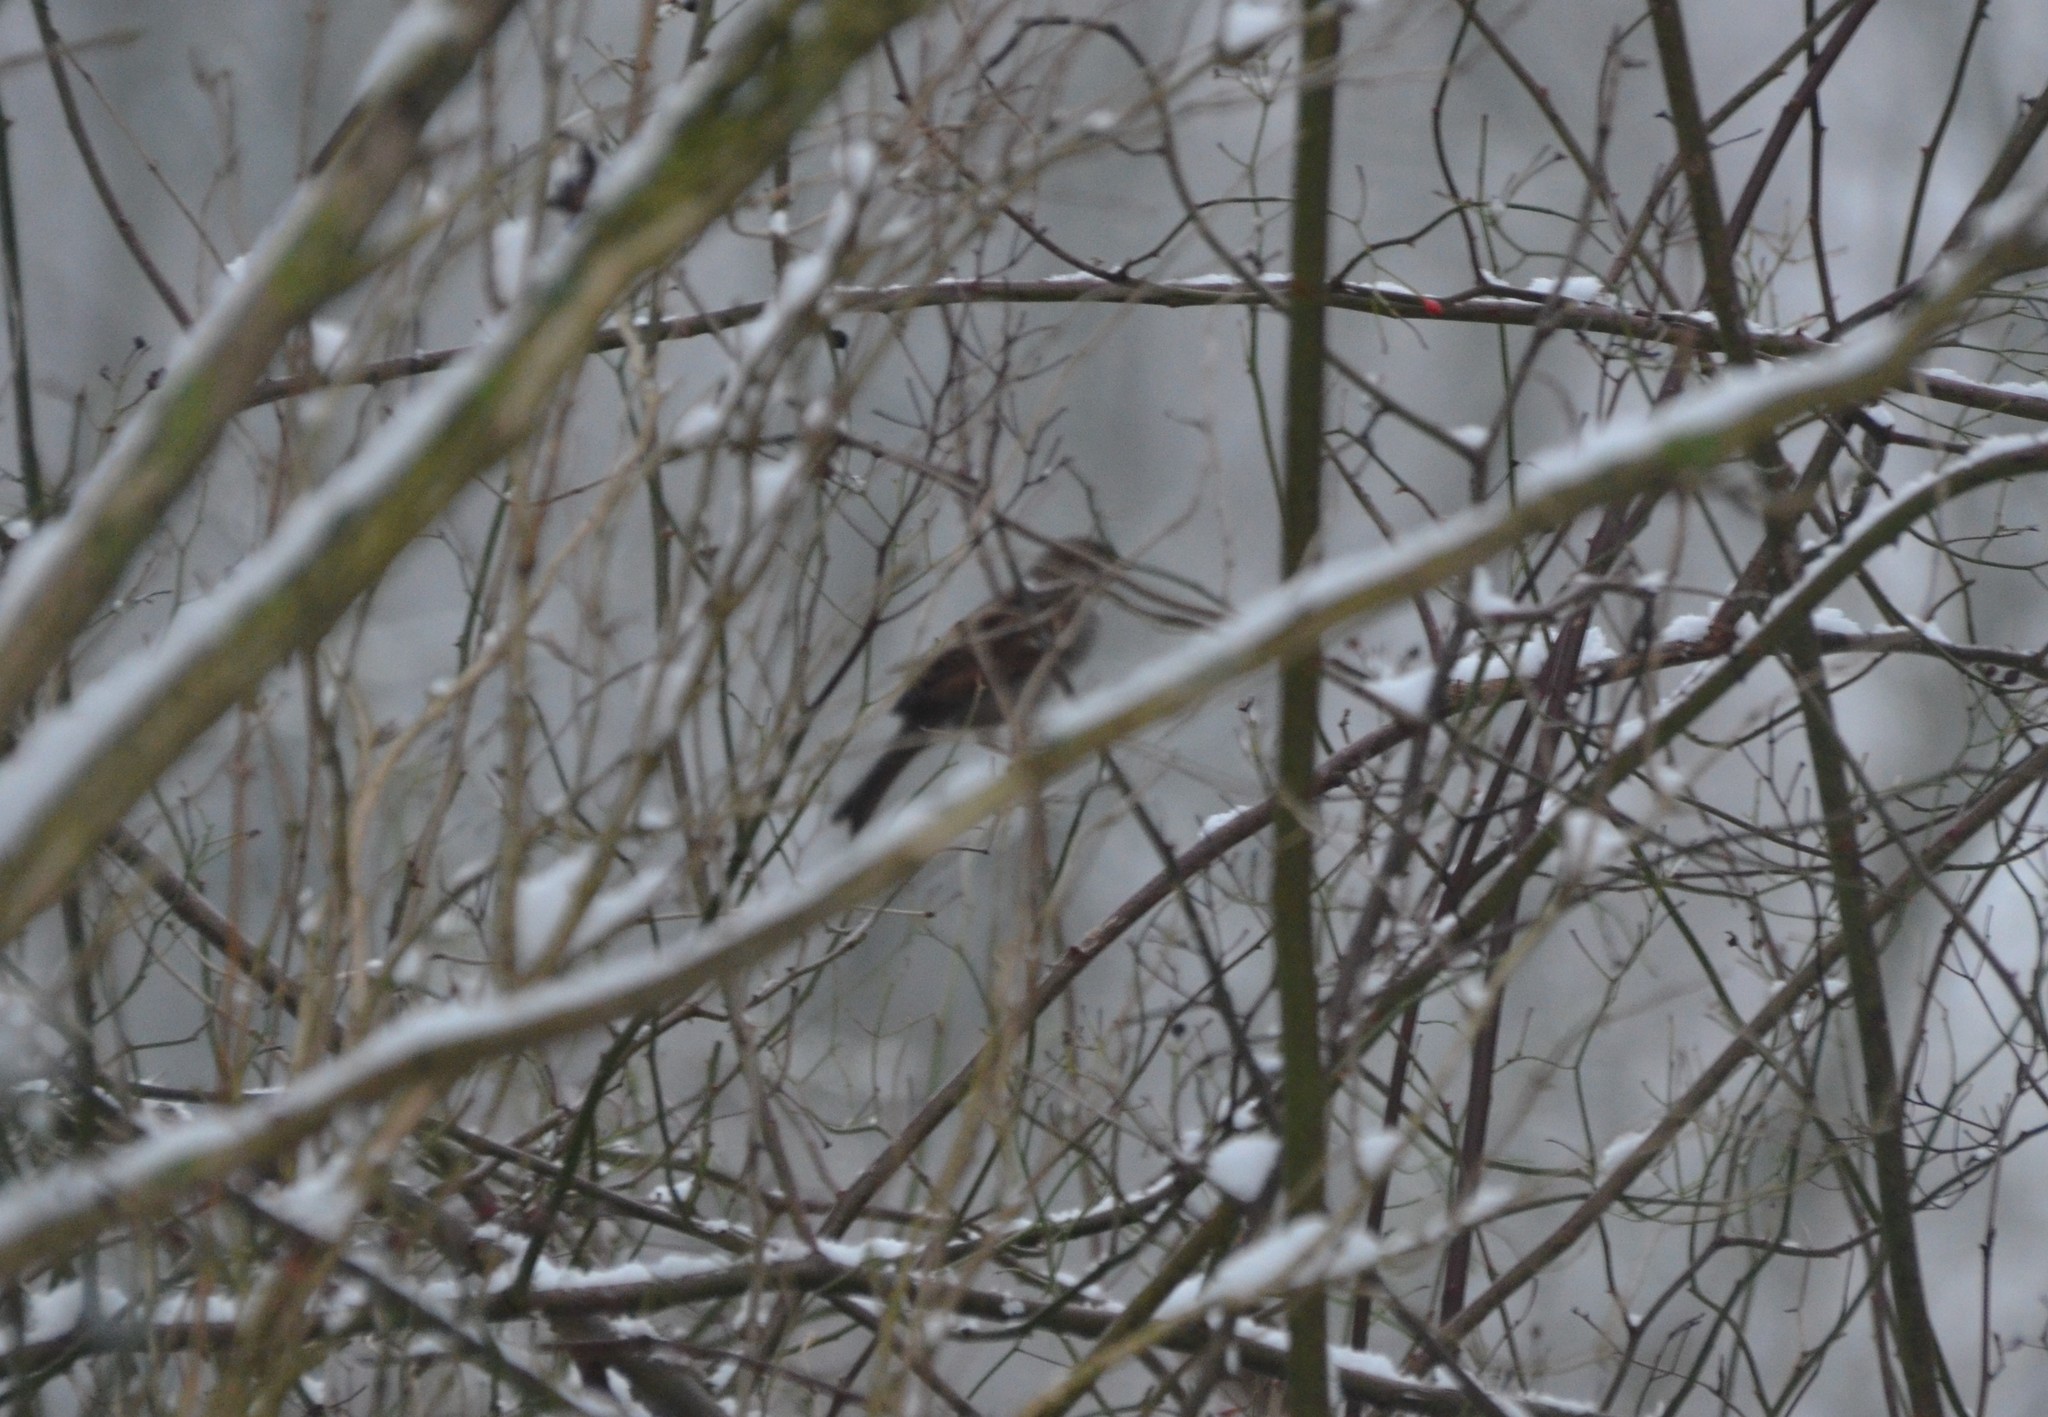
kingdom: Animalia
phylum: Chordata
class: Aves
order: Passeriformes
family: Passeridae
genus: Passer
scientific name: Passer domesticus
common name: House sparrow
